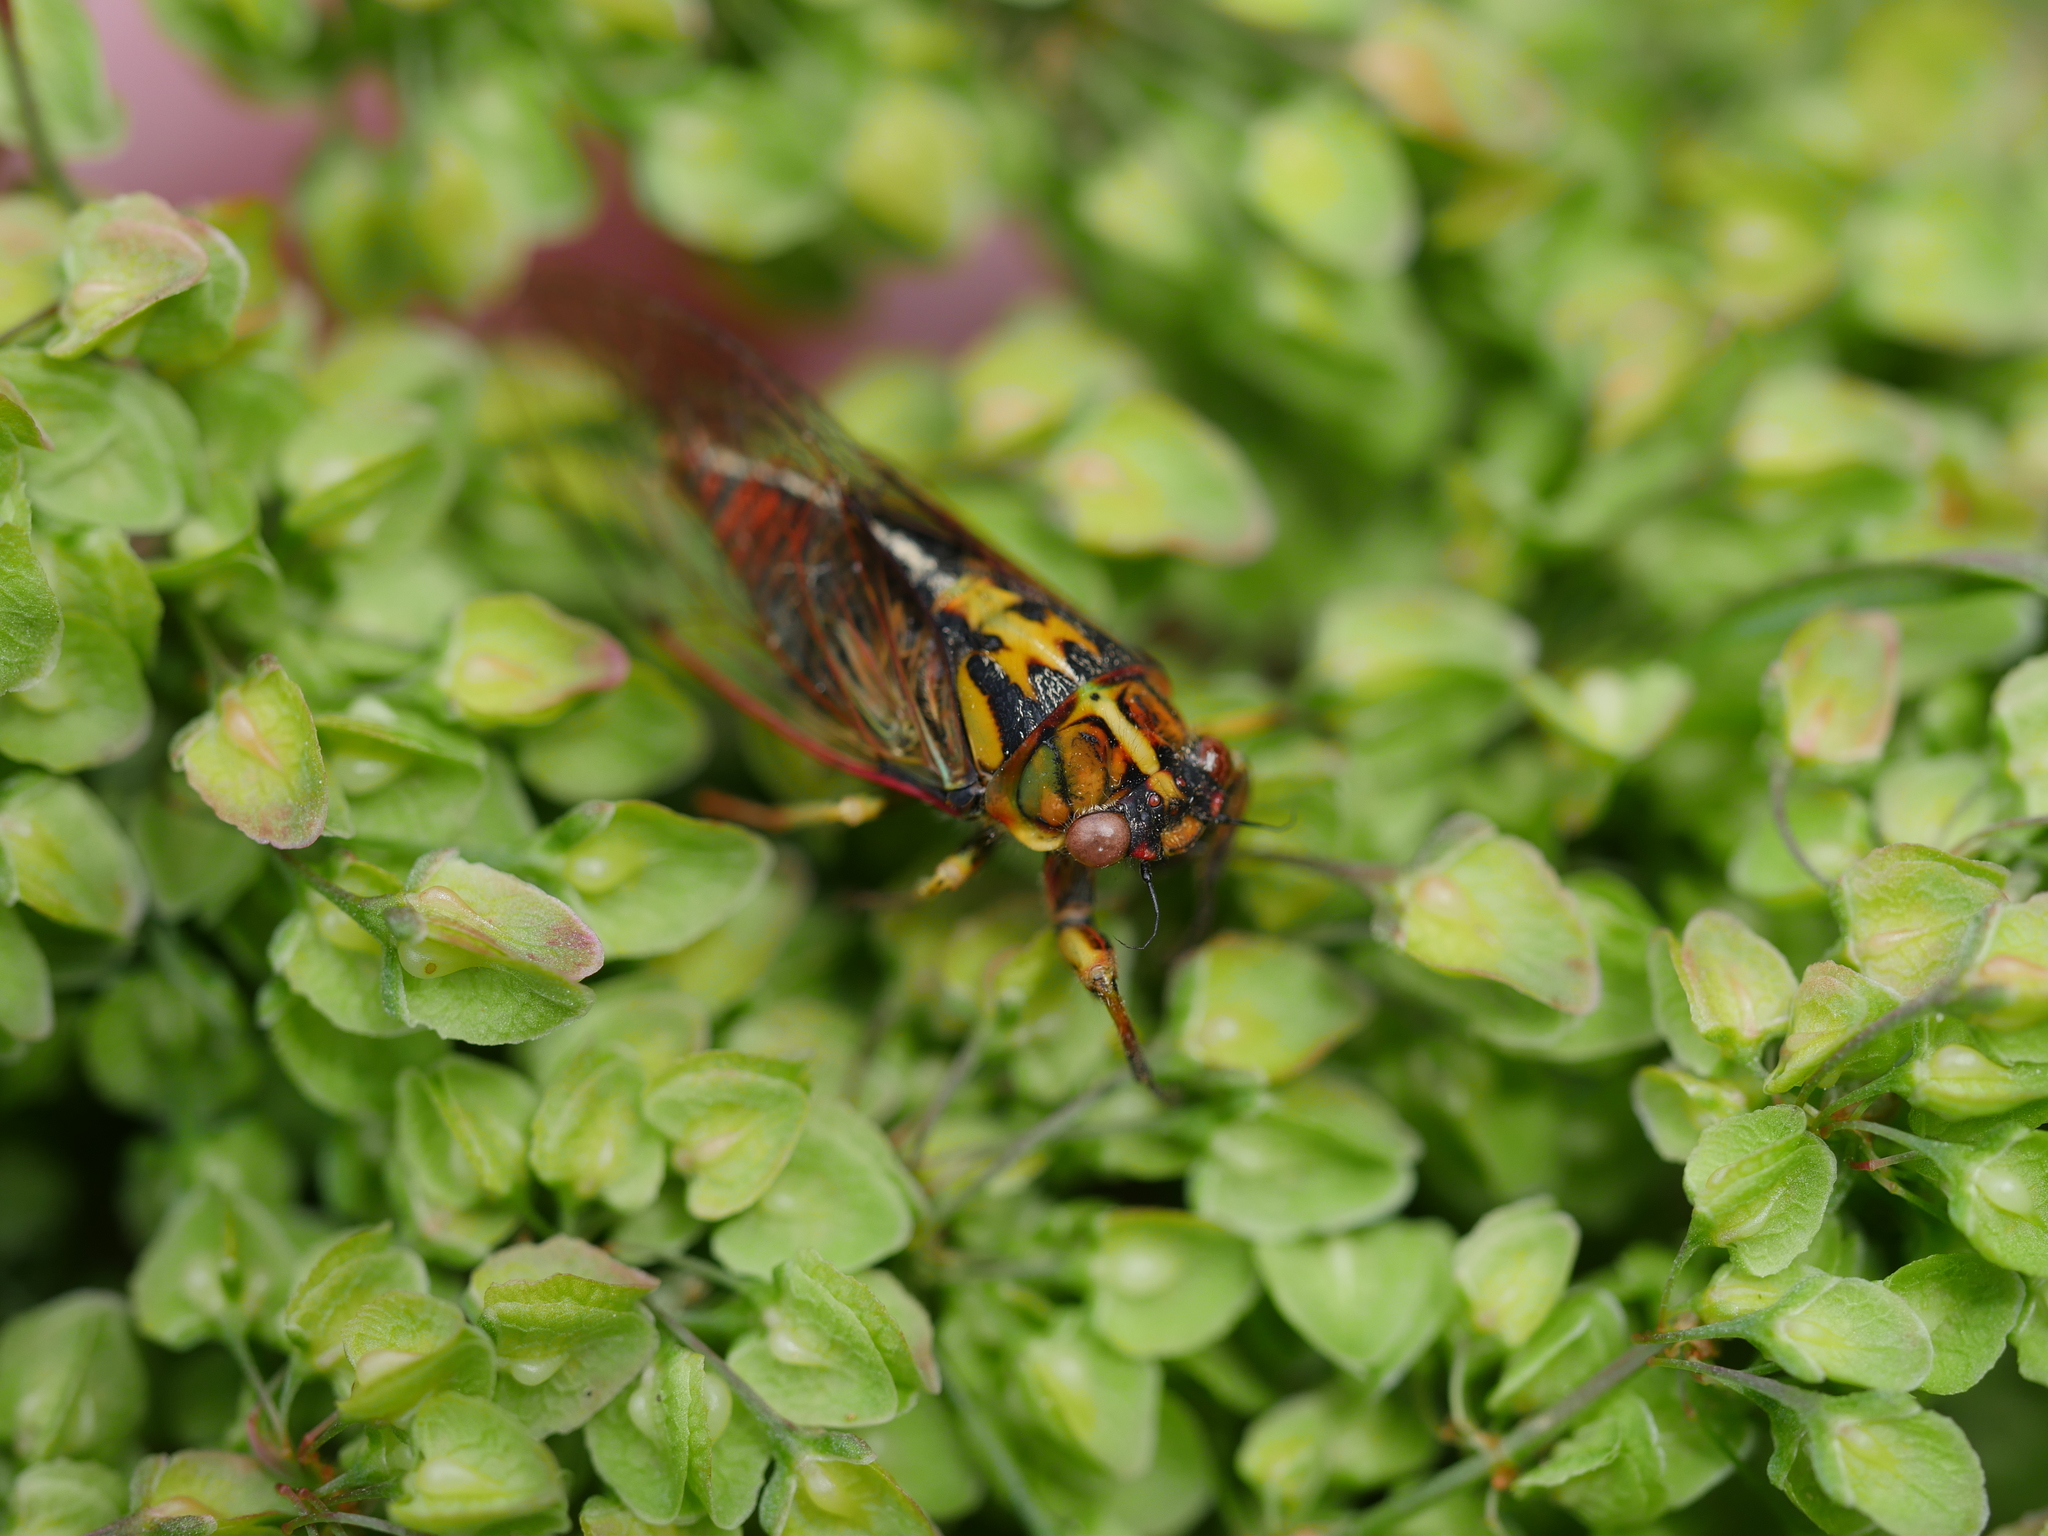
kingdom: Animalia
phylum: Arthropoda
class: Insecta
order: Hemiptera
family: Cicadidae
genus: Kikihia
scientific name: Kikihia muta
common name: Variable cicada
